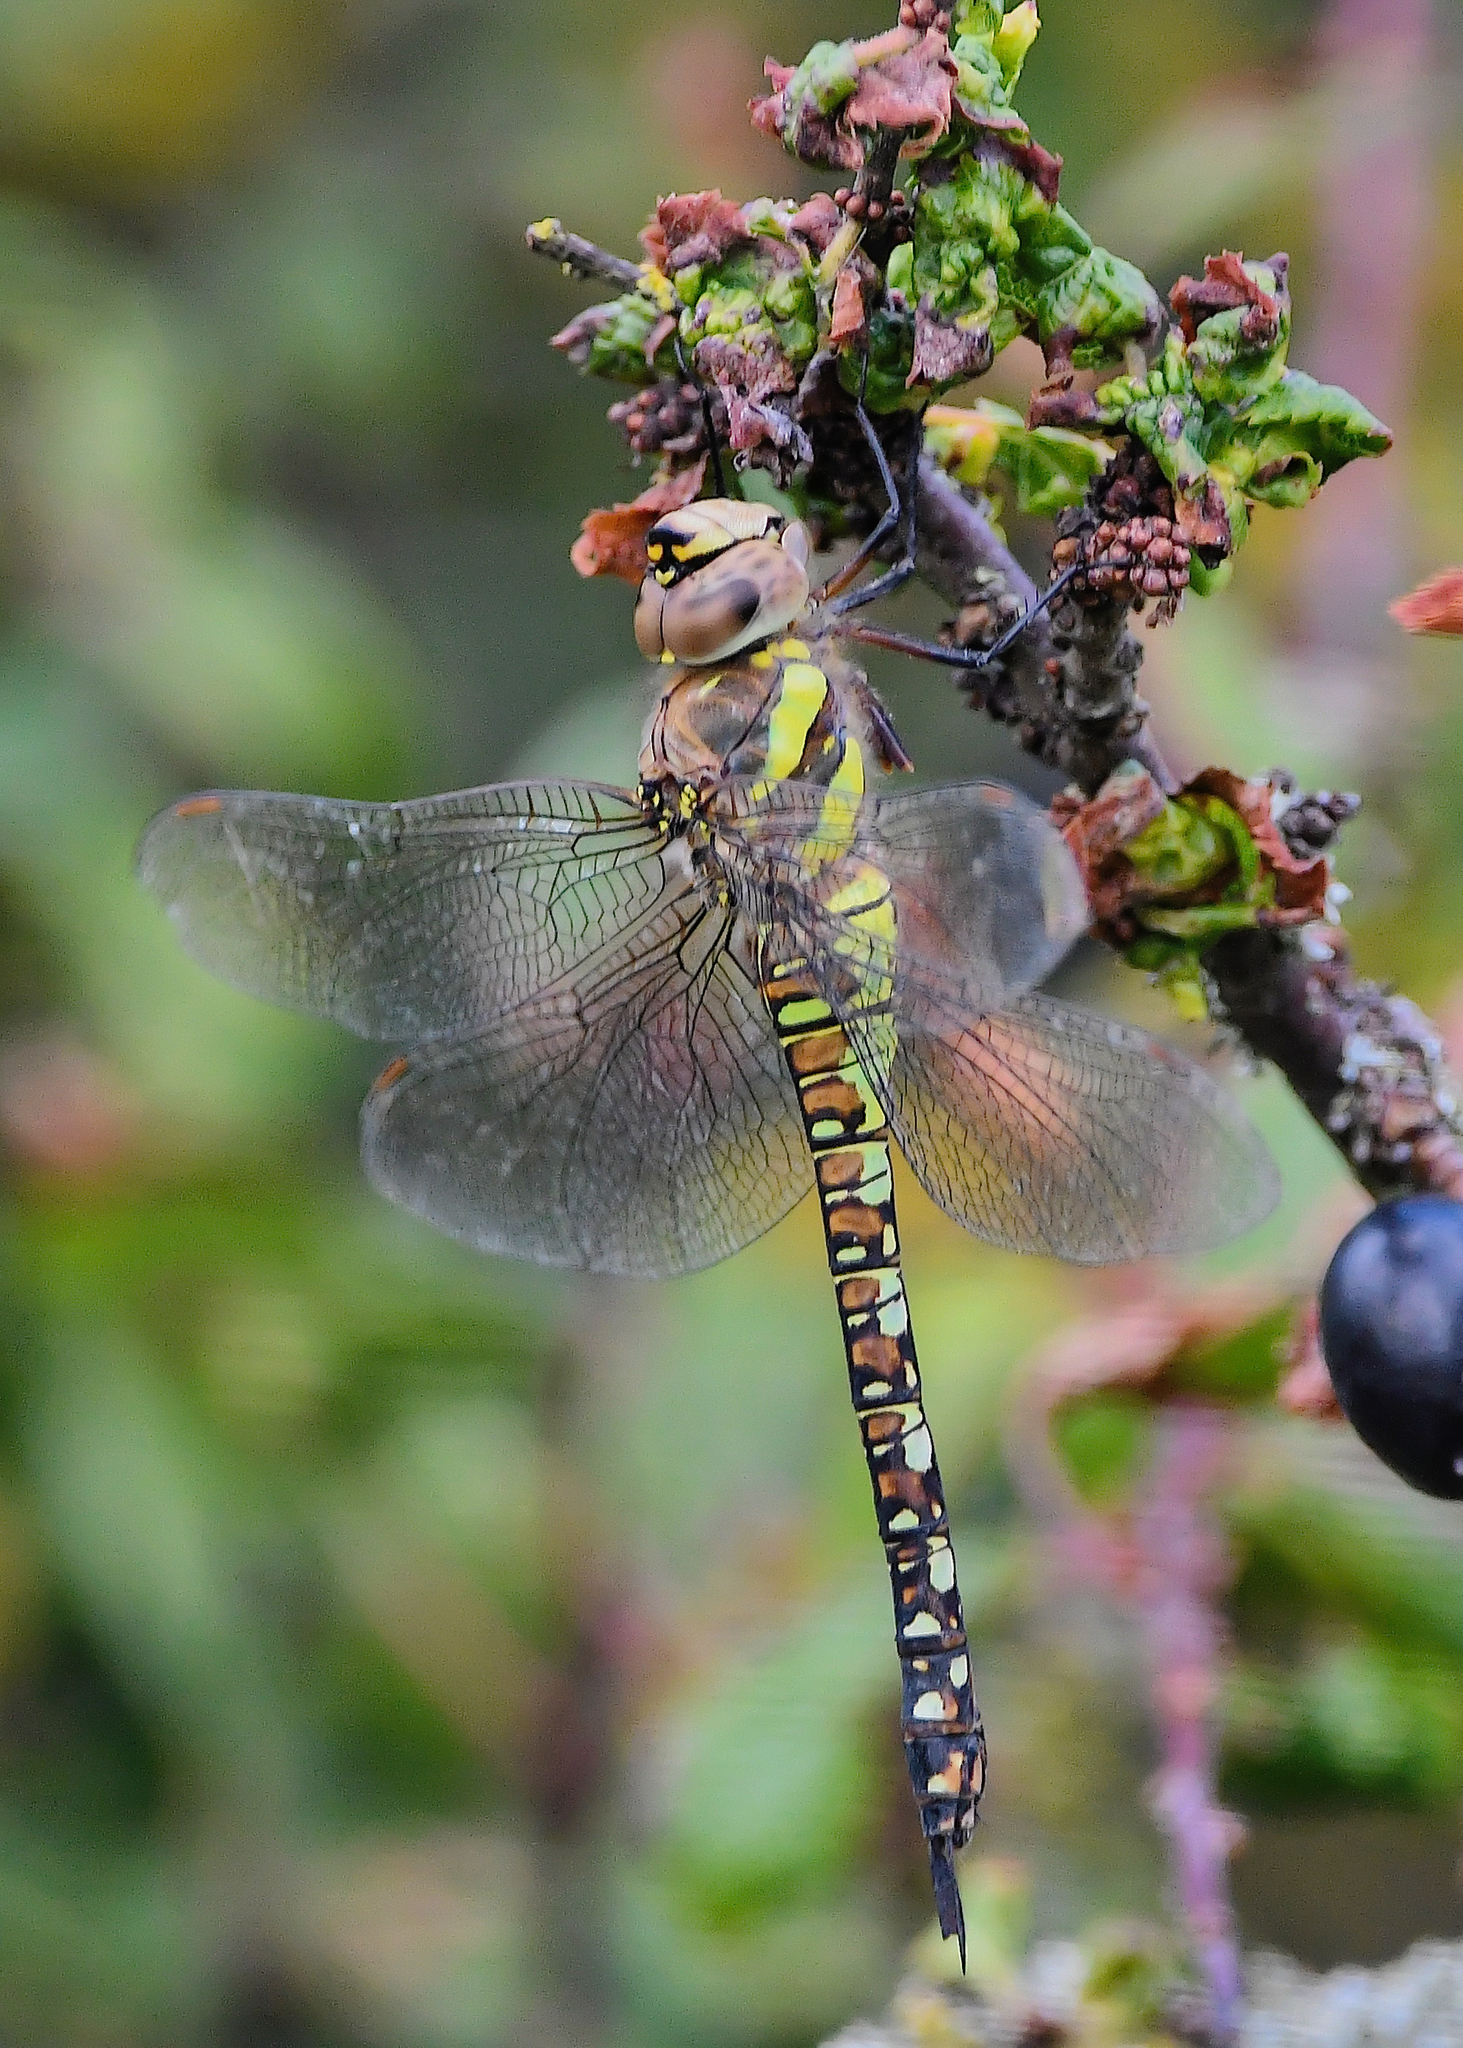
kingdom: Animalia
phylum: Arthropoda
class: Insecta
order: Odonata
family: Aeshnidae
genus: Aeshna
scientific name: Aeshna mixta
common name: Migrant hawker
